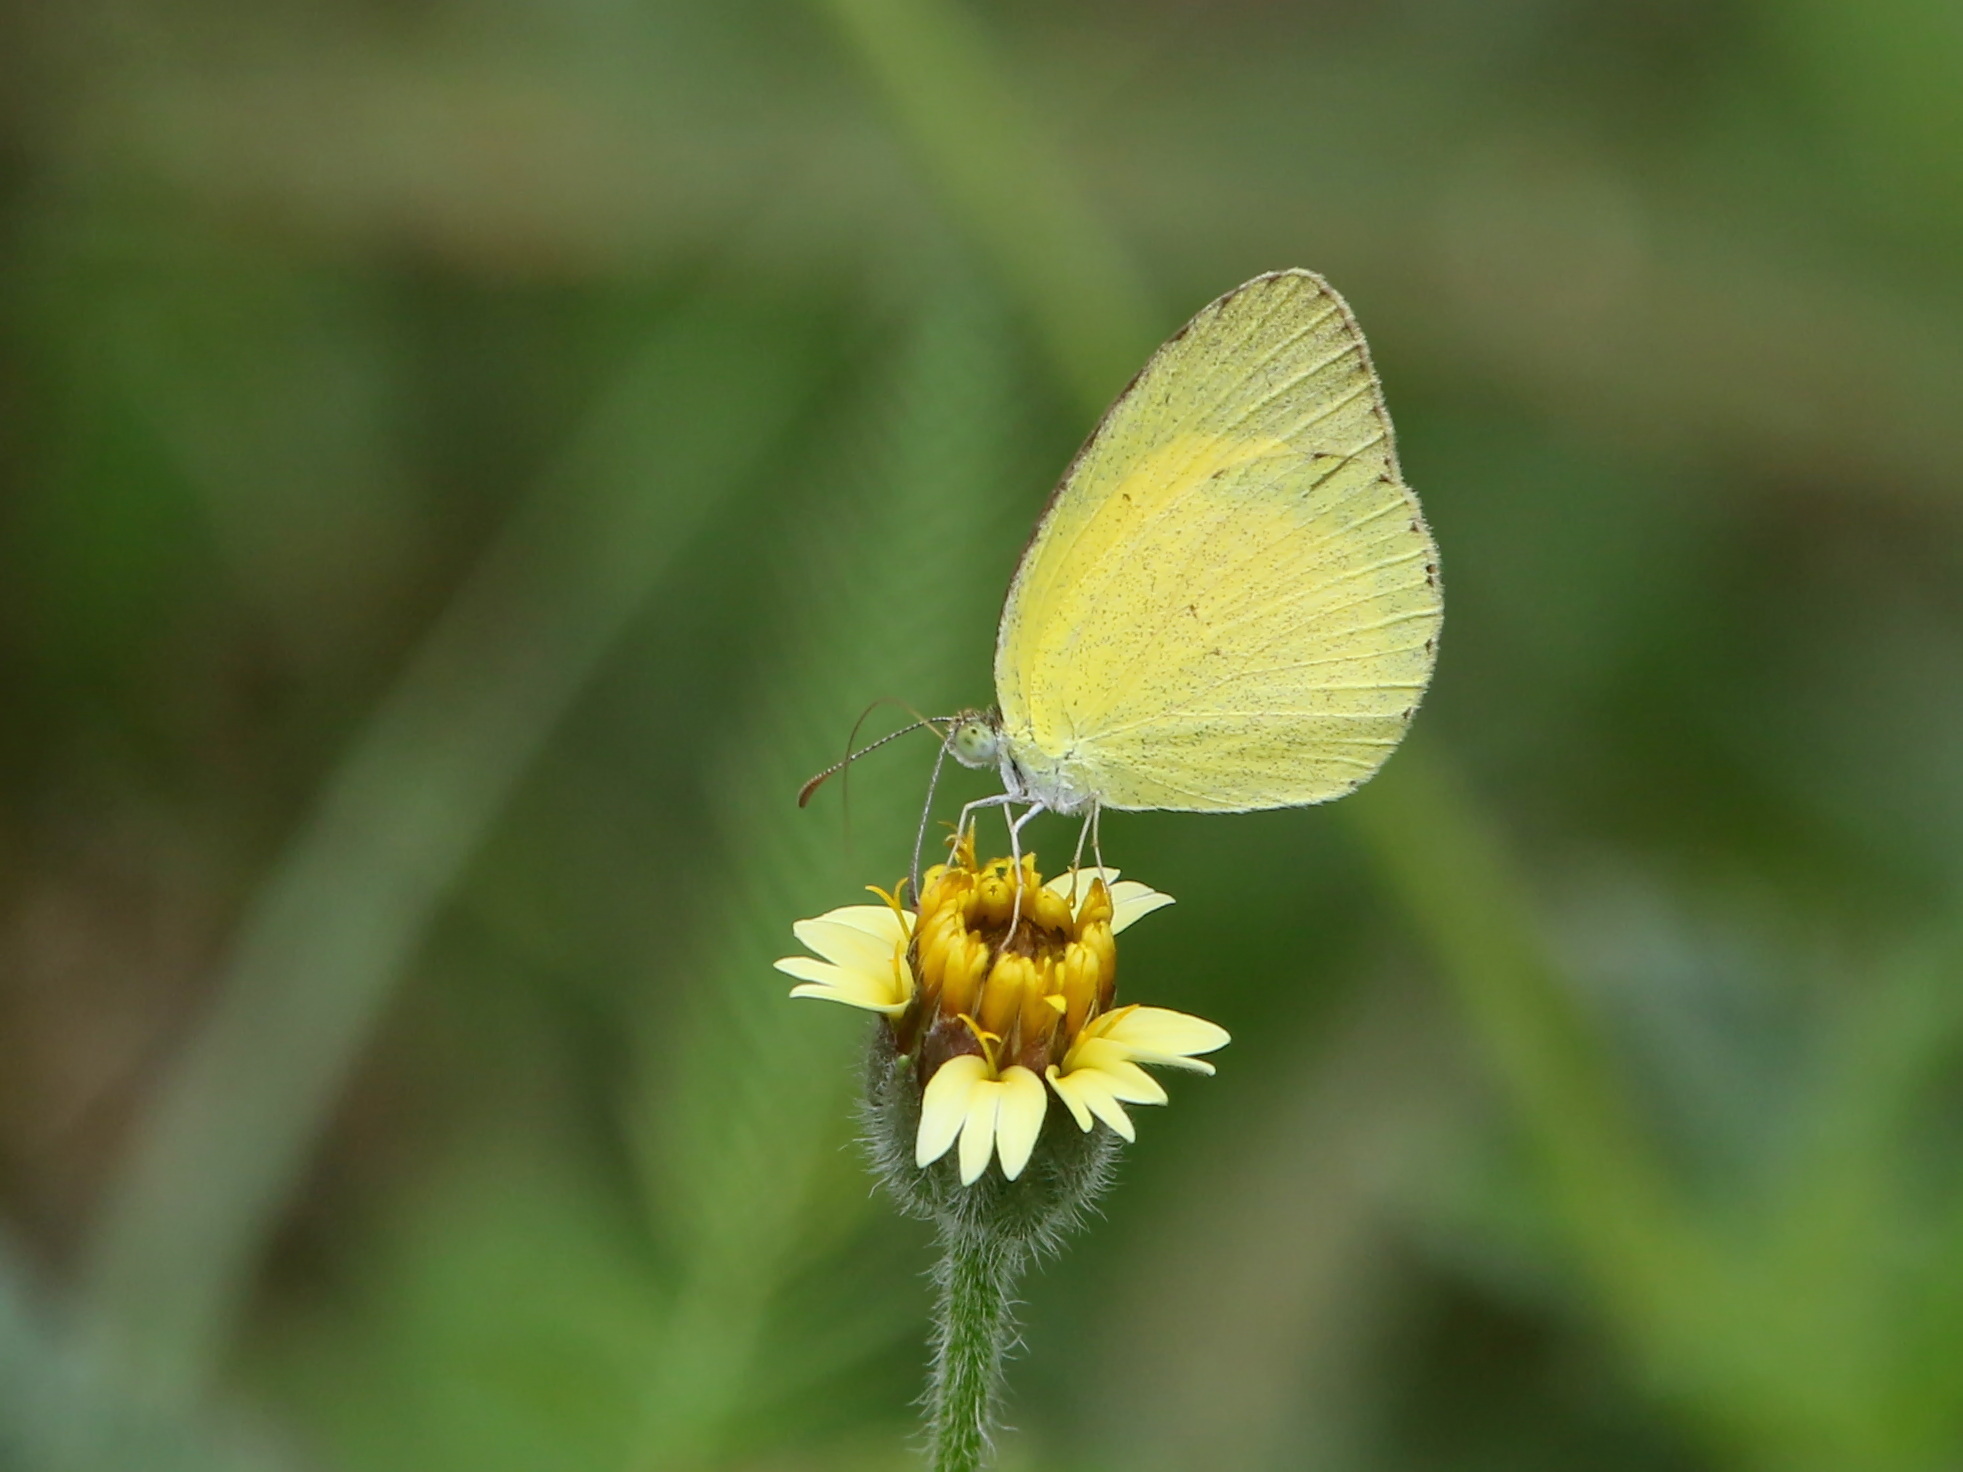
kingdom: Animalia
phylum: Arthropoda
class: Insecta
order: Lepidoptera
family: Pieridae
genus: Eurema
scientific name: Eurema brigitta
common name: Small grass yellow
